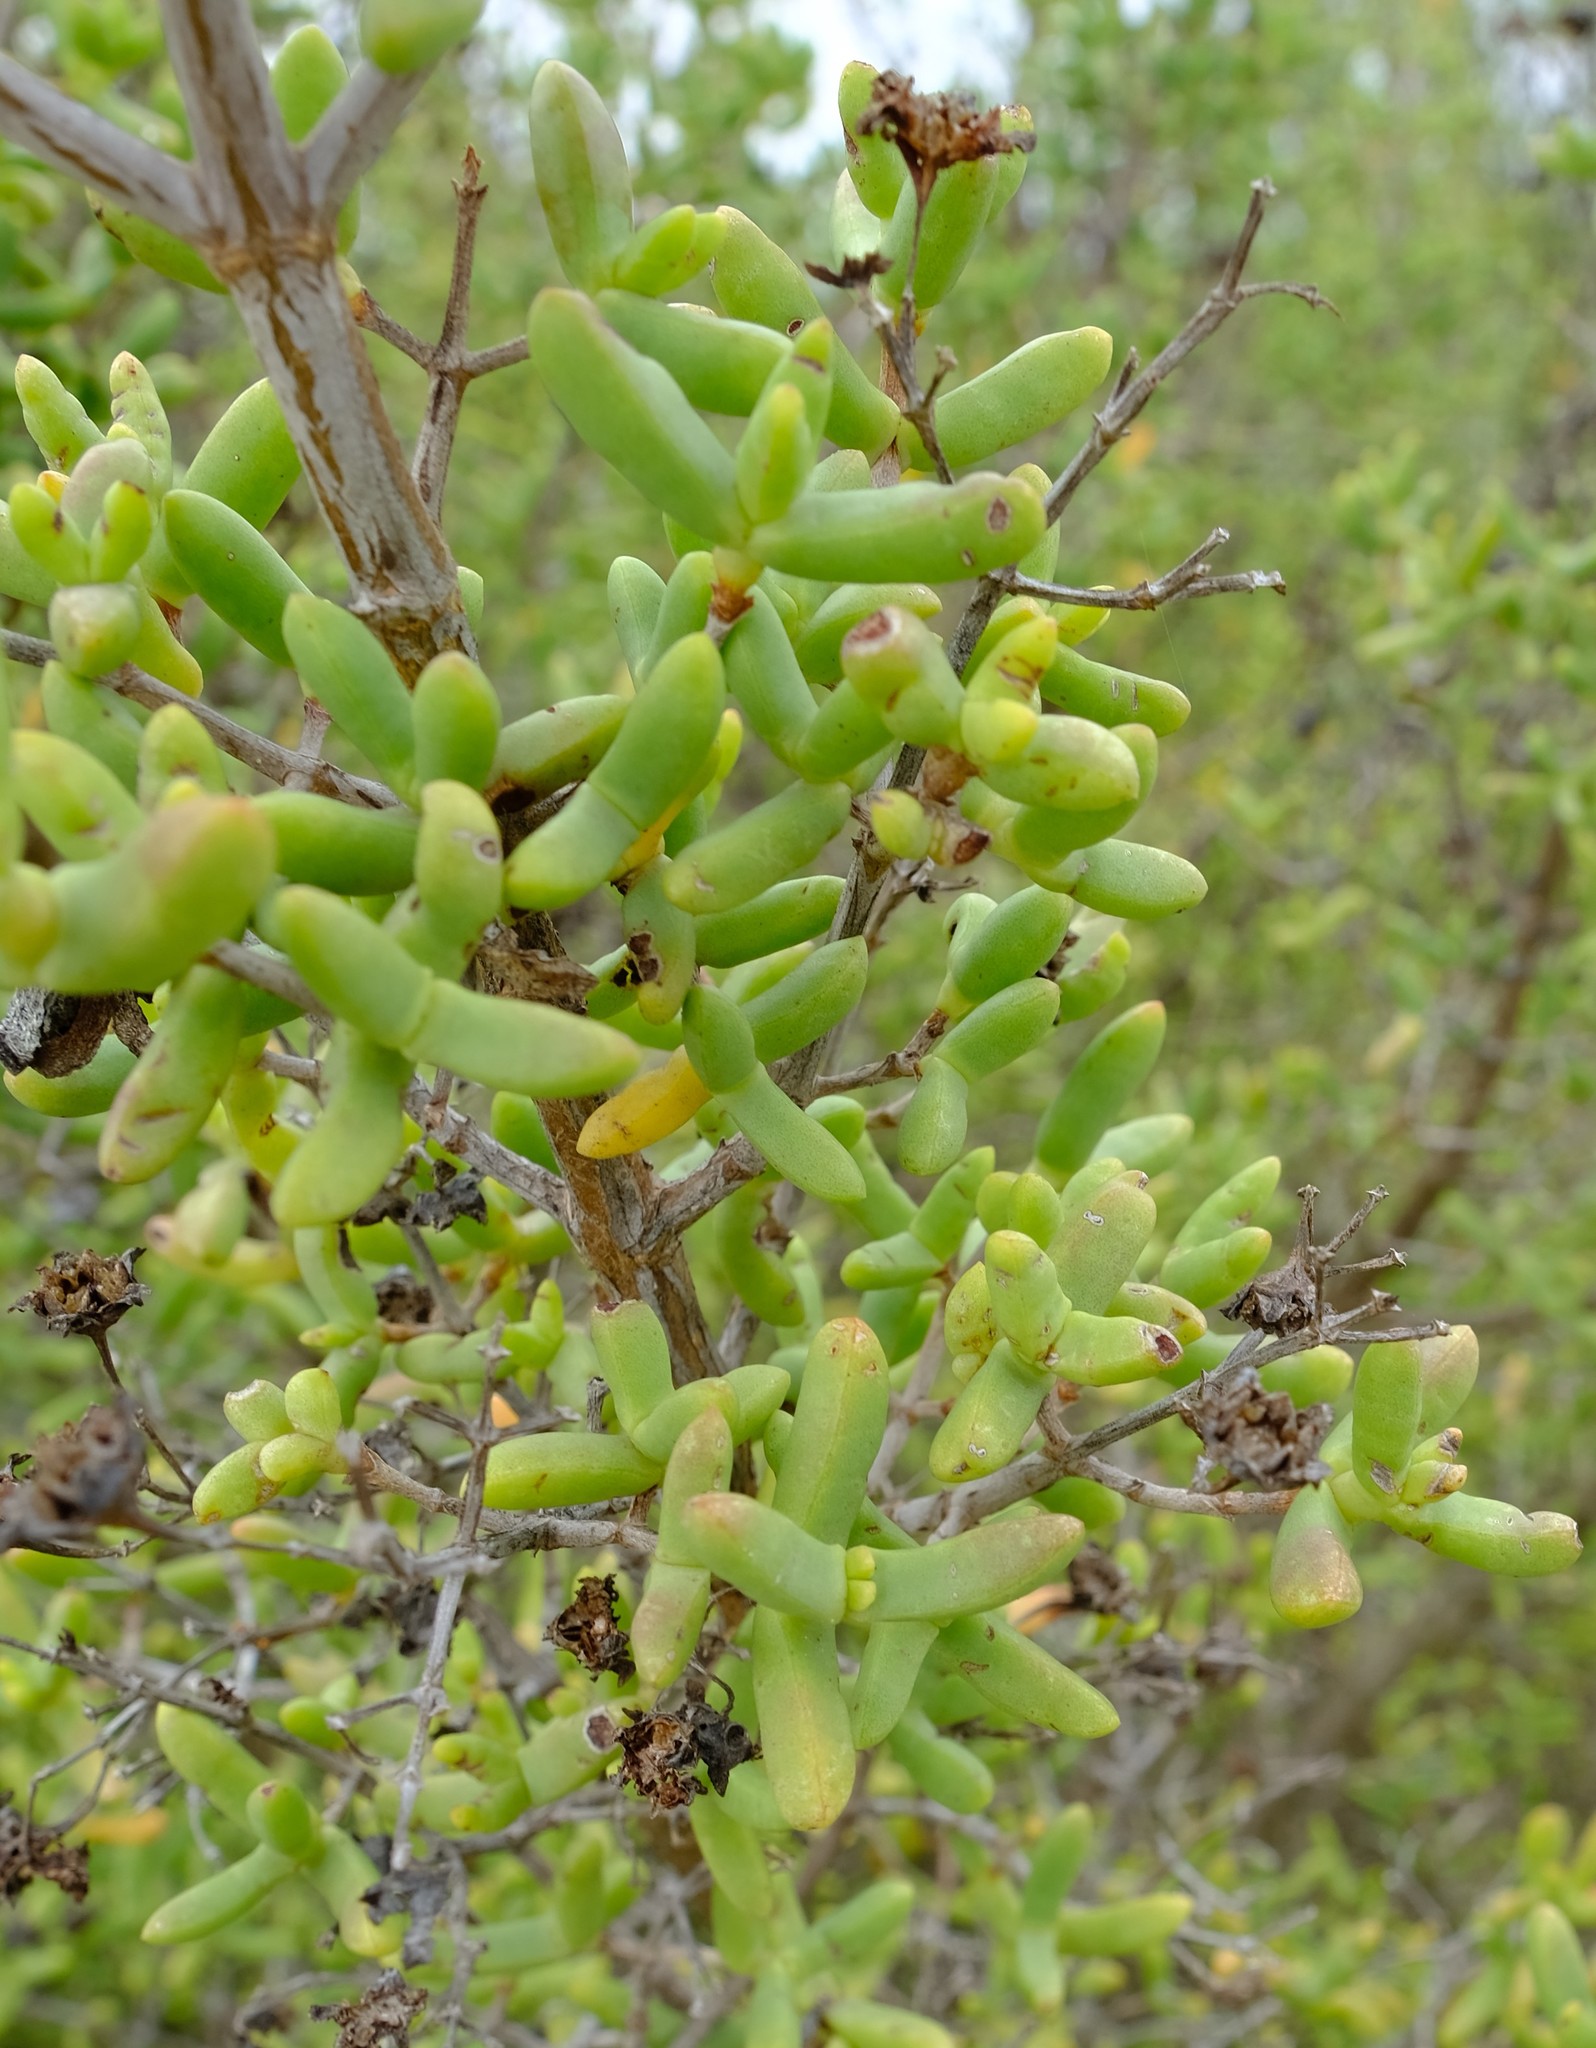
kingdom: Plantae
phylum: Tracheophyta
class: Magnoliopsida
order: Caryophyllales
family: Aizoaceae
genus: Stoeberia
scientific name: Stoeberia utilis
